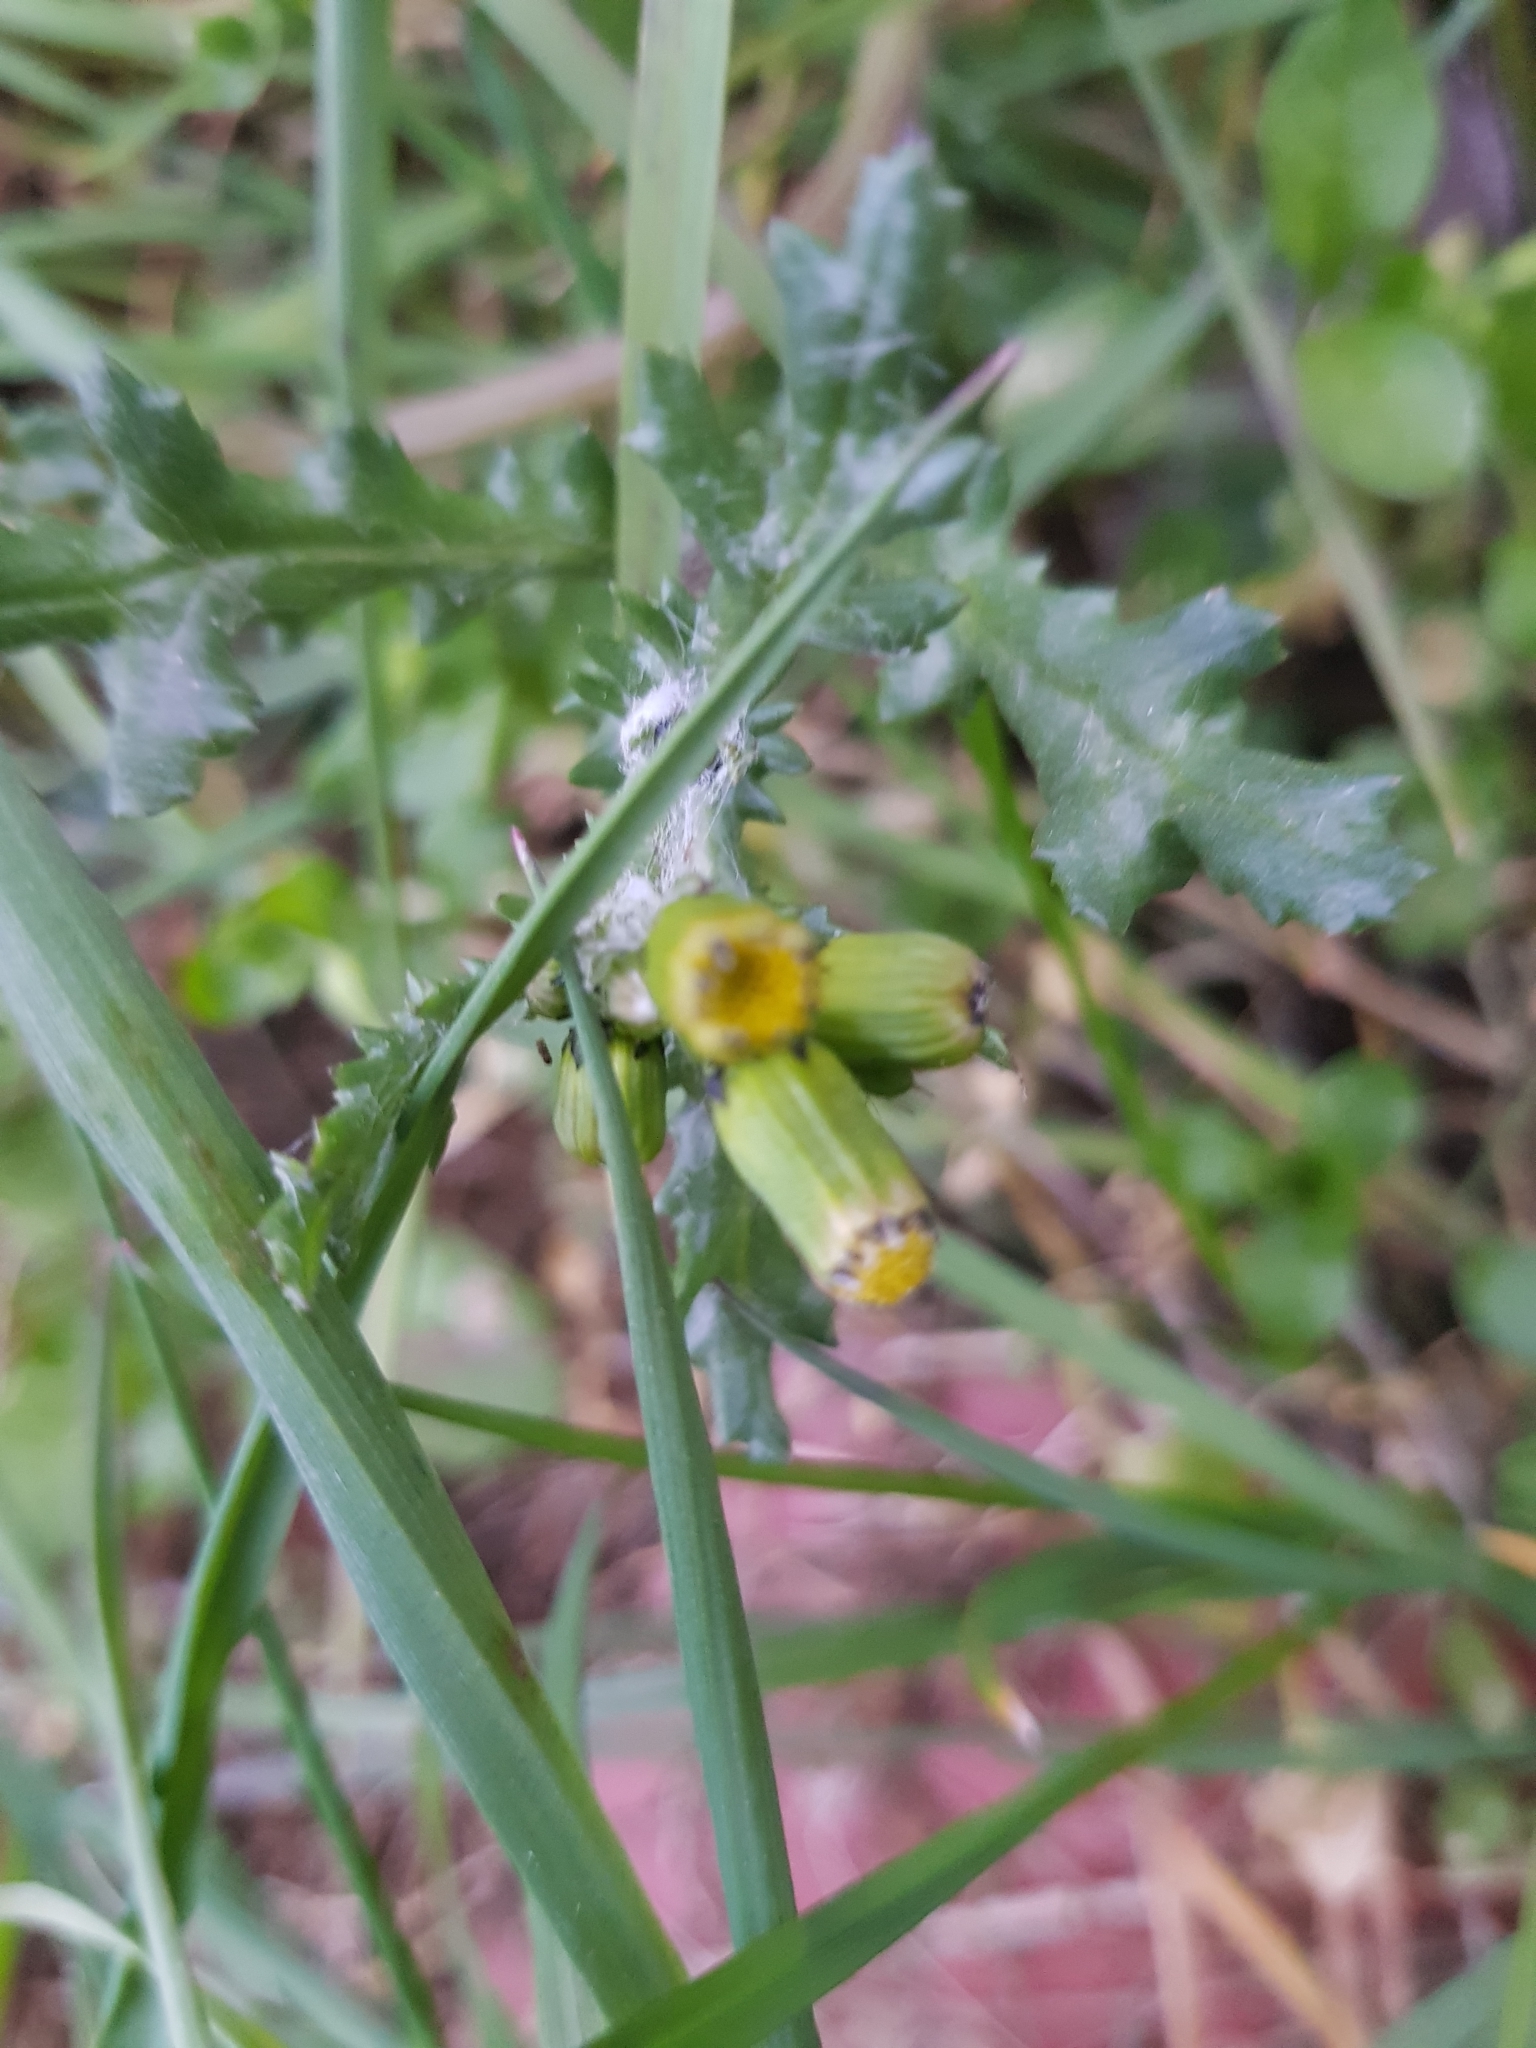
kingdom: Plantae
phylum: Tracheophyta
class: Magnoliopsida
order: Asterales
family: Asteraceae
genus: Senecio
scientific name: Senecio vulgaris
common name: Old-man-in-the-spring
